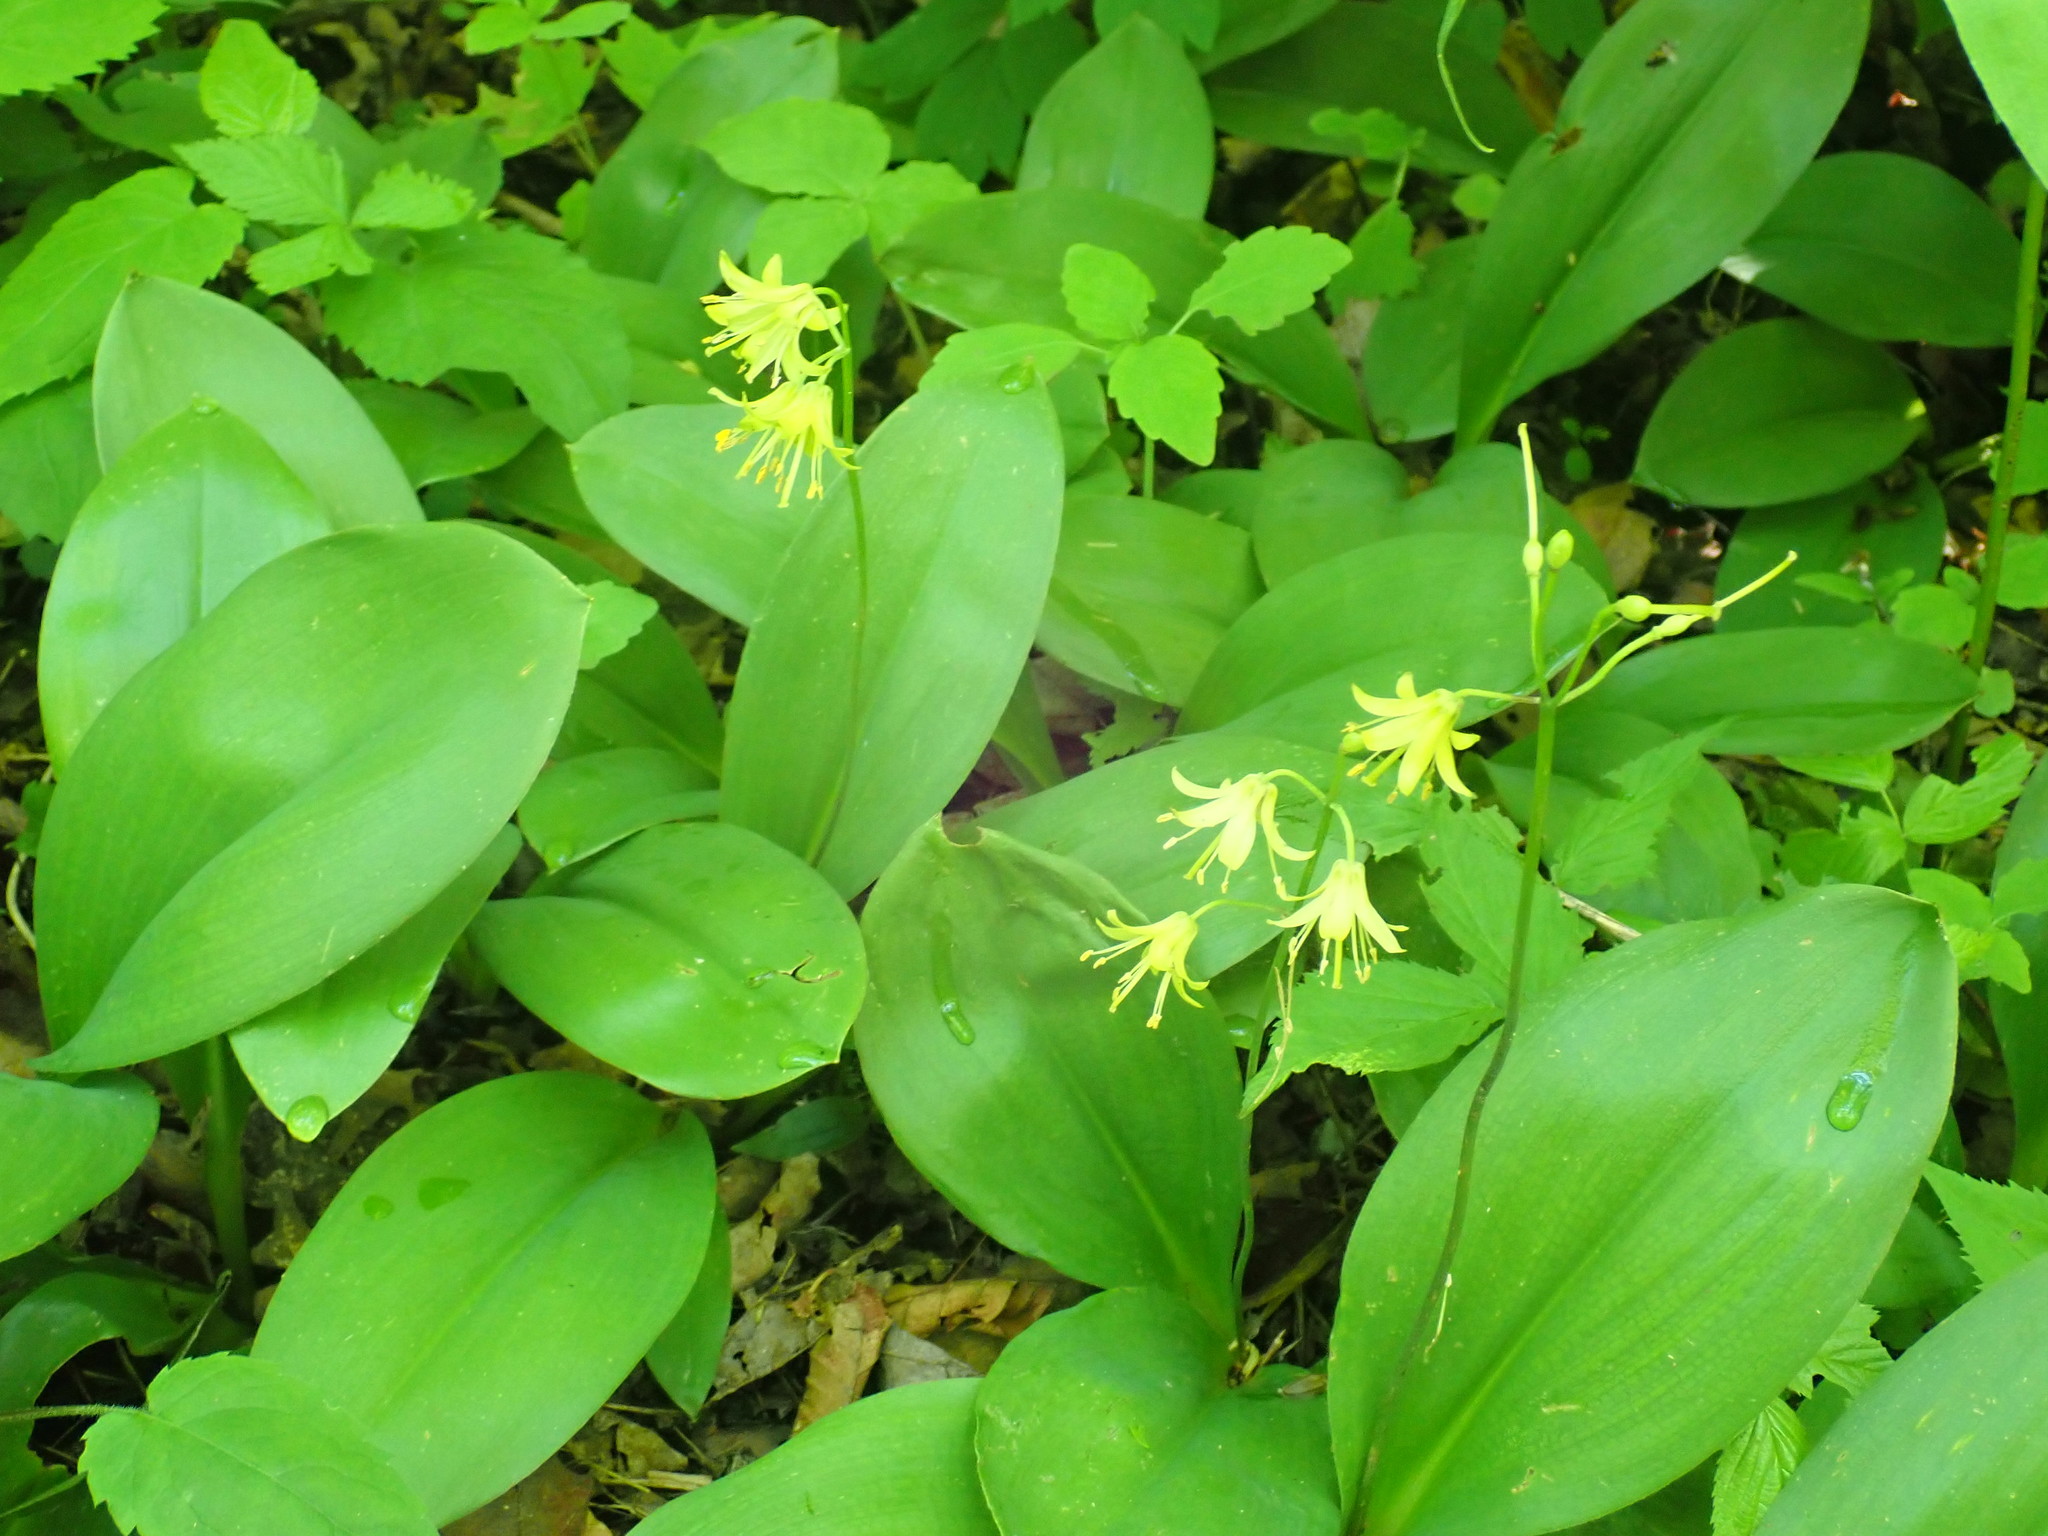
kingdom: Plantae
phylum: Tracheophyta
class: Liliopsida
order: Liliales
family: Liliaceae
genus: Clintonia
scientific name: Clintonia borealis
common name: Yellow clintonia
